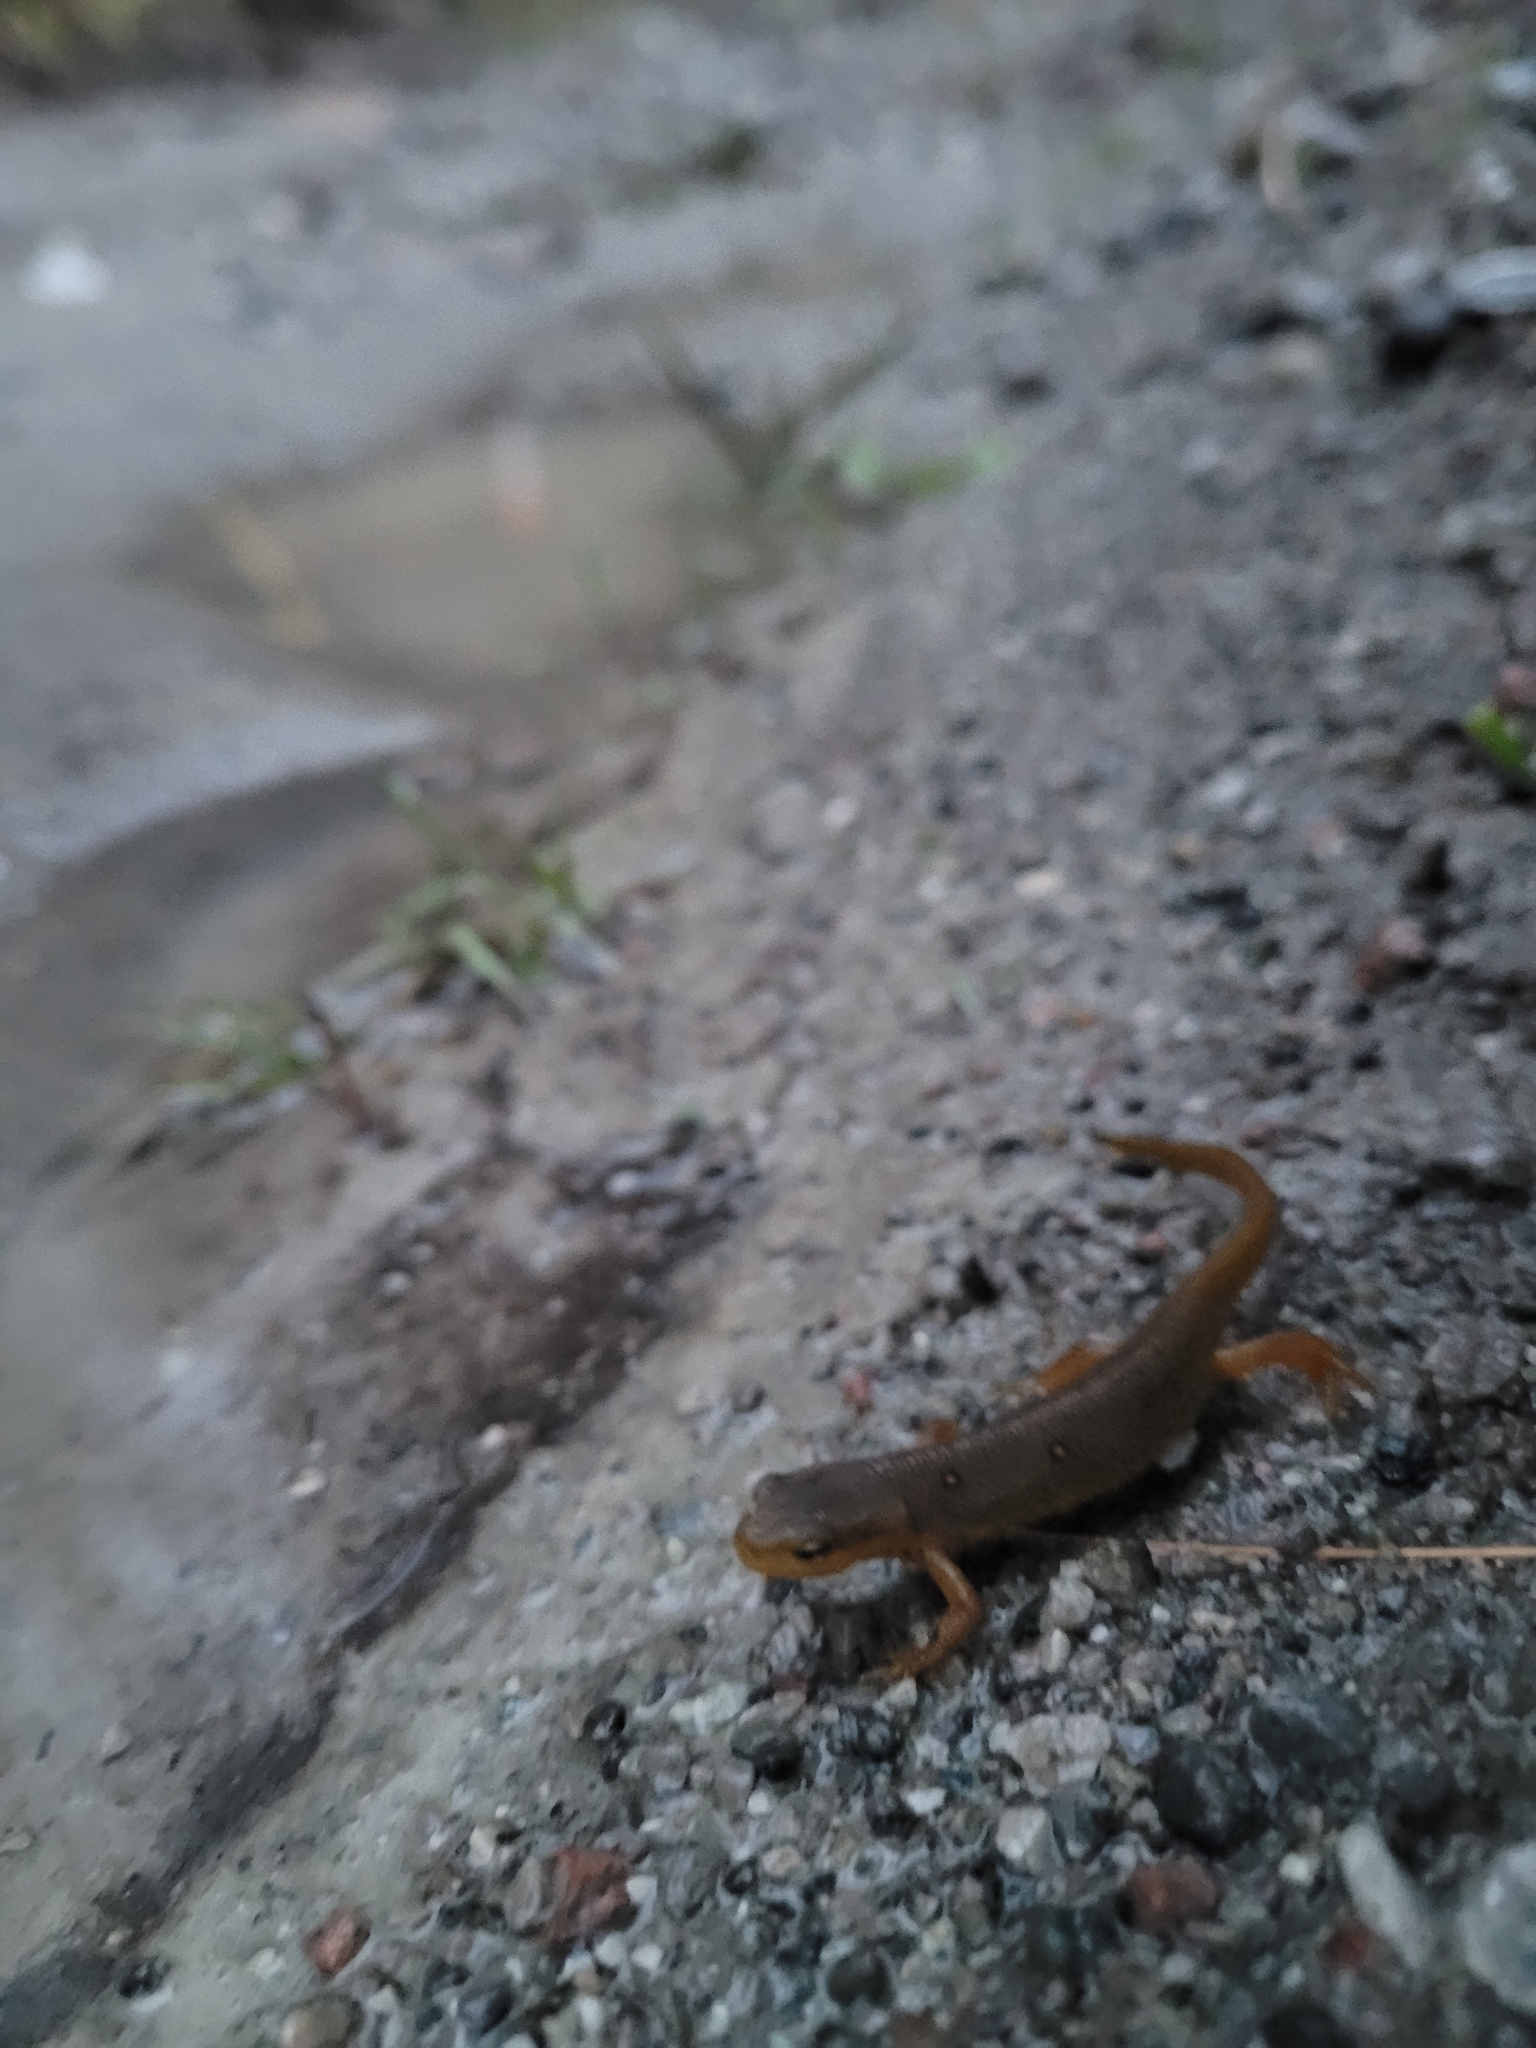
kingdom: Animalia
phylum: Chordata
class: Amphibia
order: Caudata
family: Salamandridae
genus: Notophthalmus
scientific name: Notophthalmus viridescens
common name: Eastern newt
